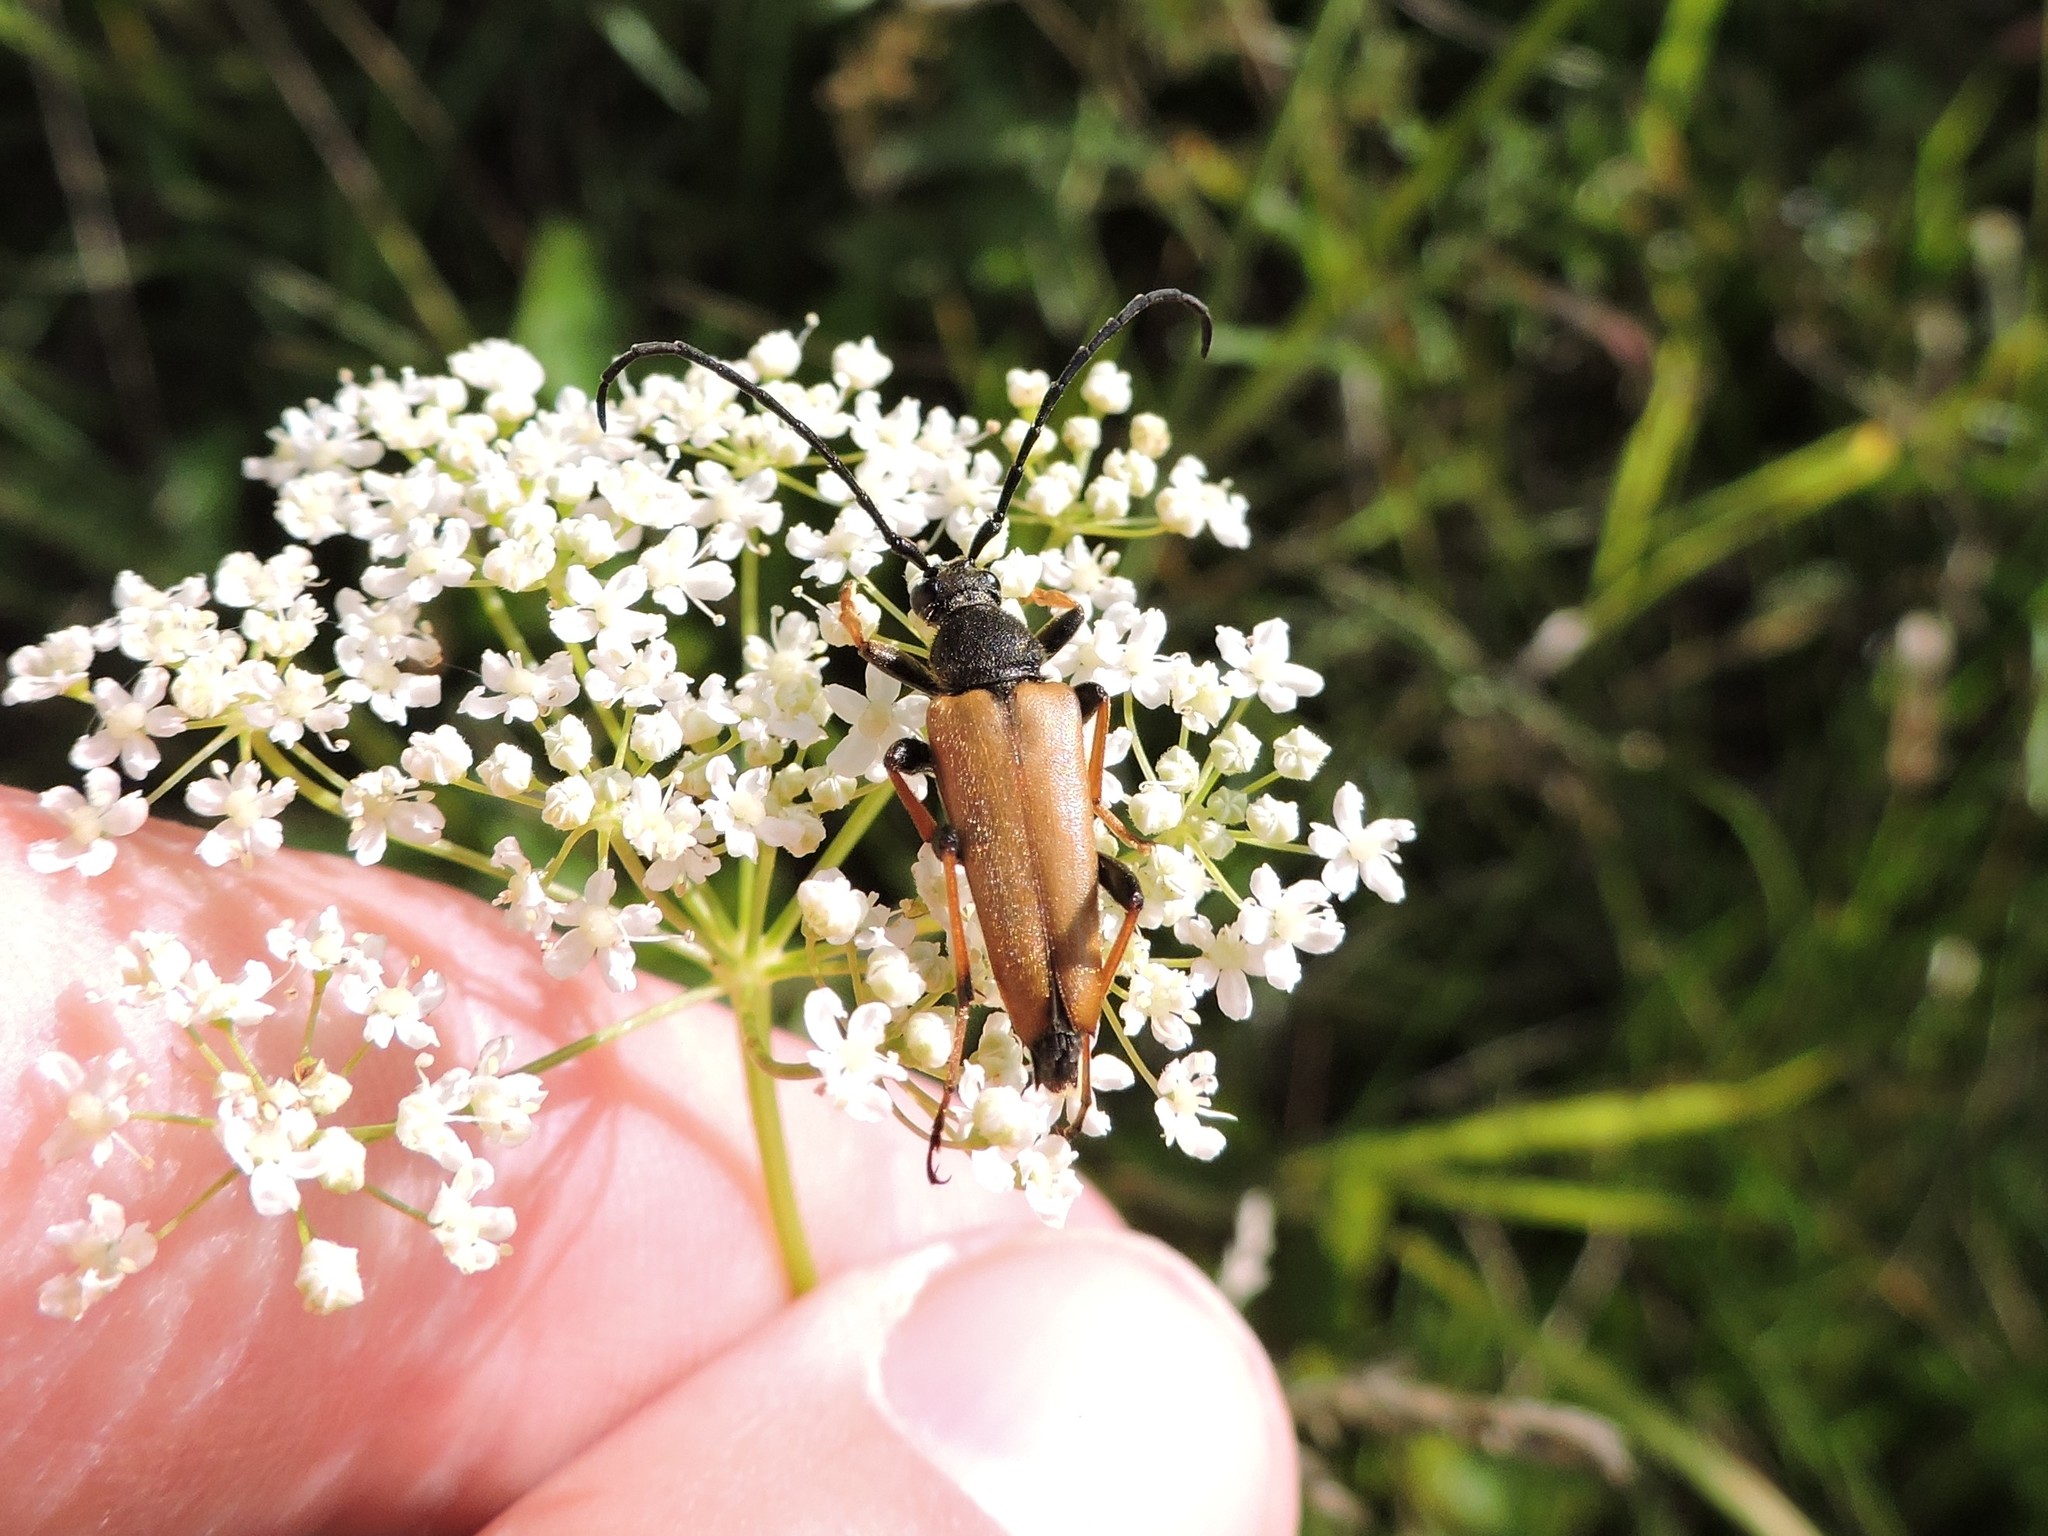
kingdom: Animalia
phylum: Arthropoda
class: Insecta
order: Coleoptera
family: Cerambycidae
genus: Stictoleptura
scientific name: Stictoleptura rubra
